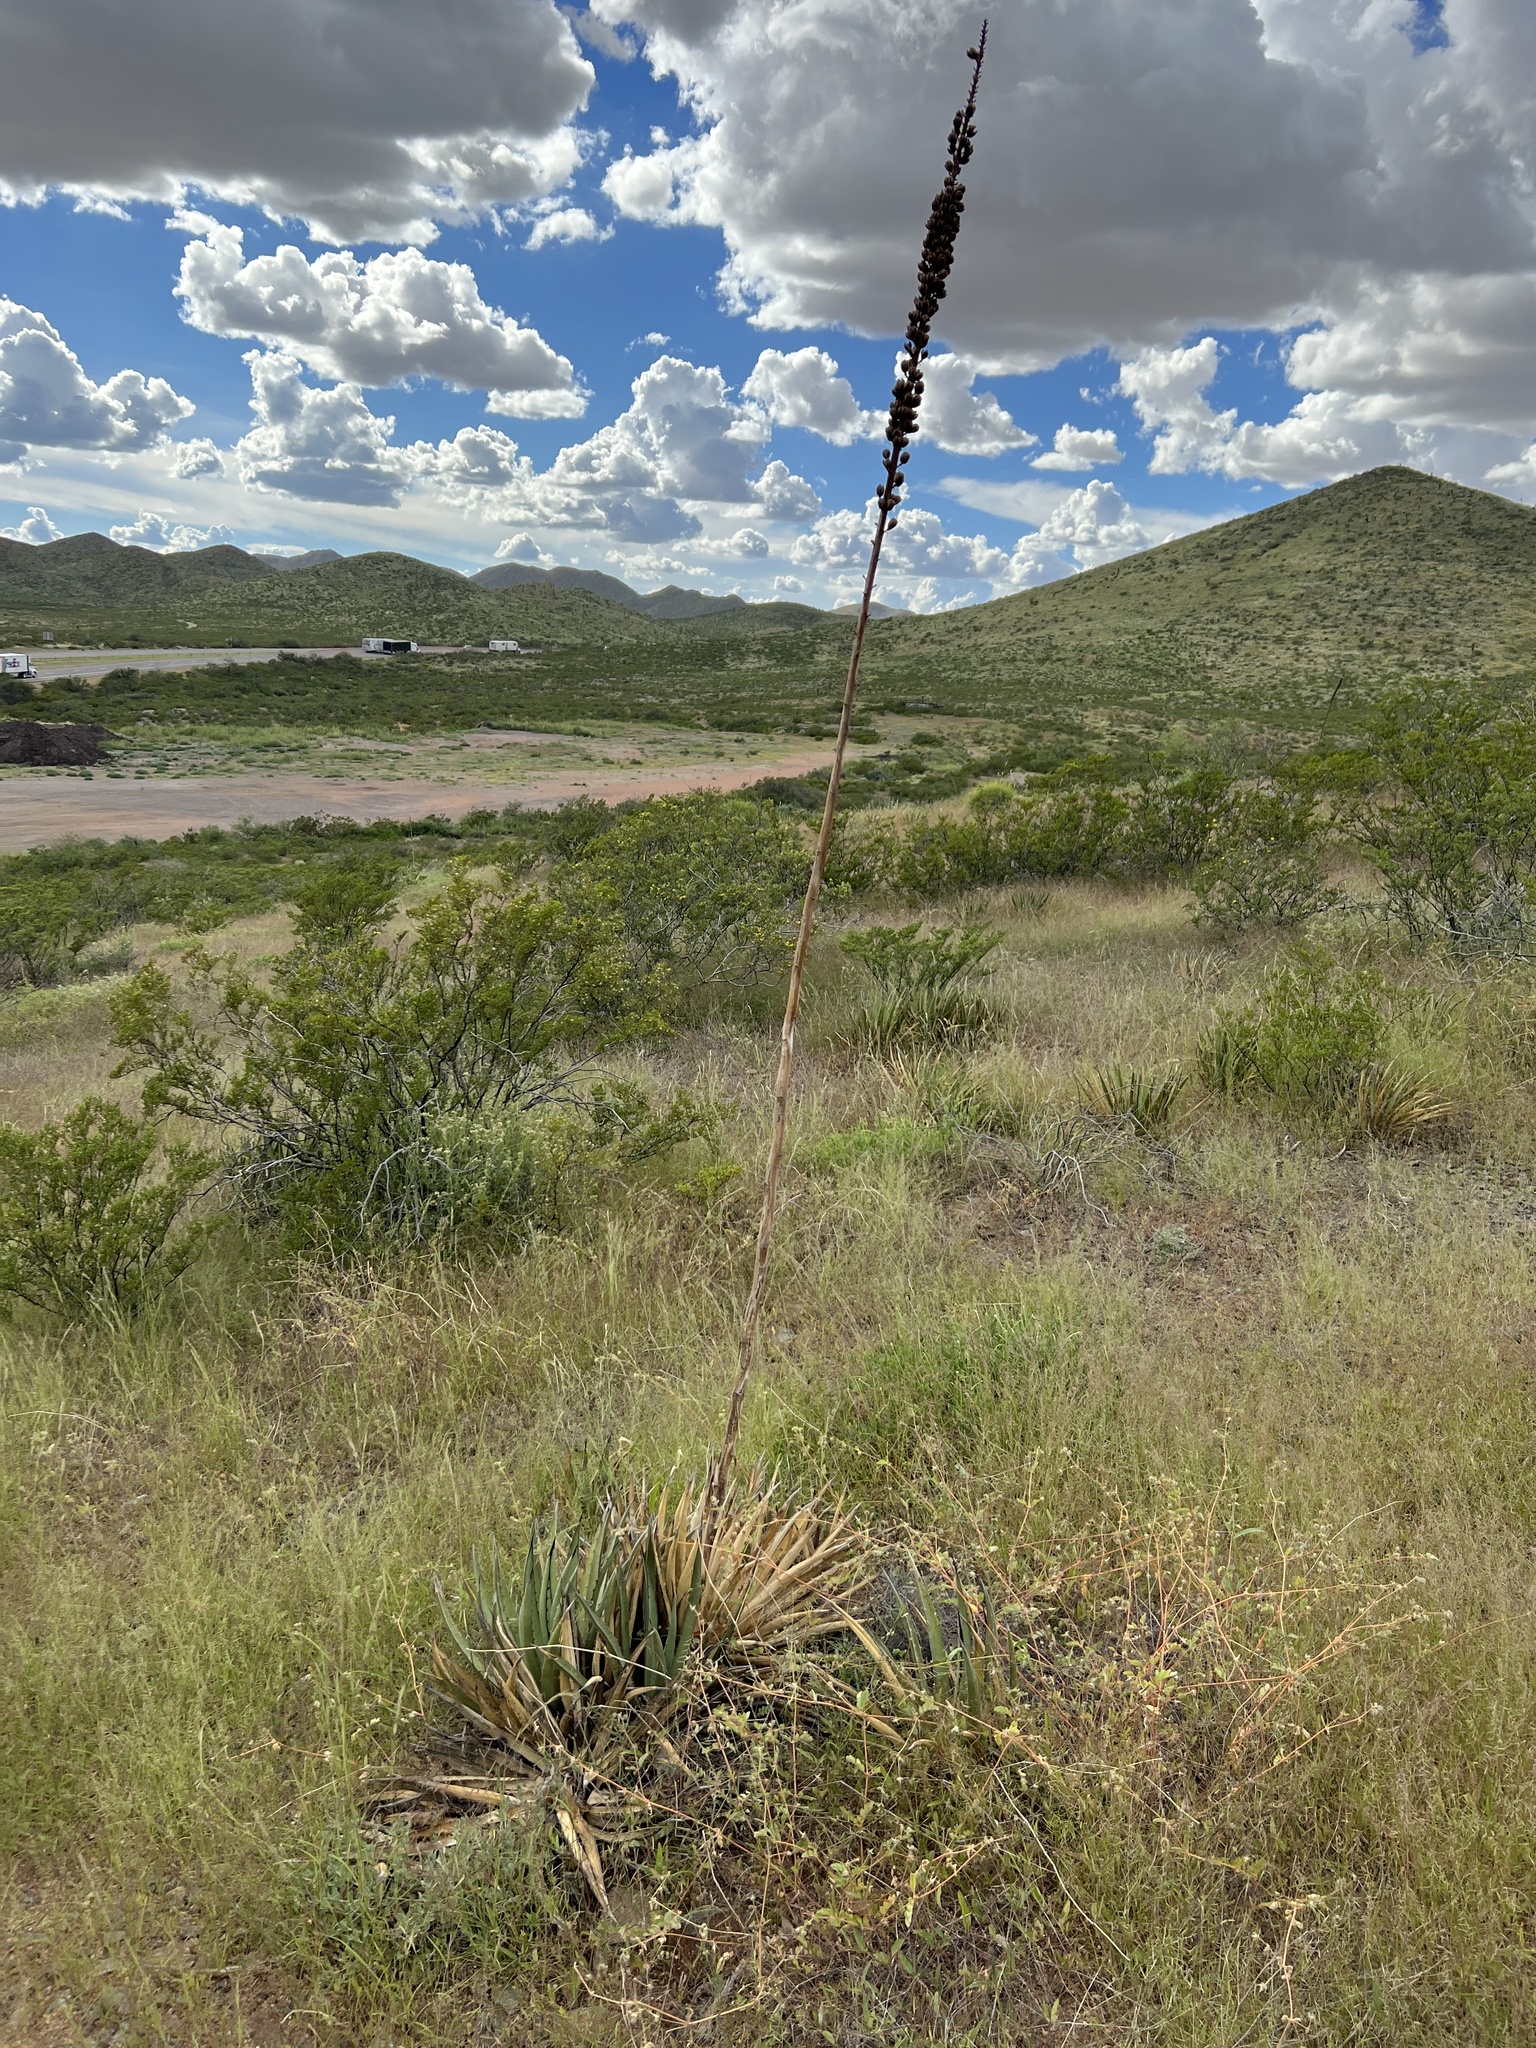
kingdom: Plantae
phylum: Tracheophyta
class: Liliopsida
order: Asparagales
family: Asparagaceae
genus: Agave
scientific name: Agave lechuguilla
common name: Lecheguilla agave
